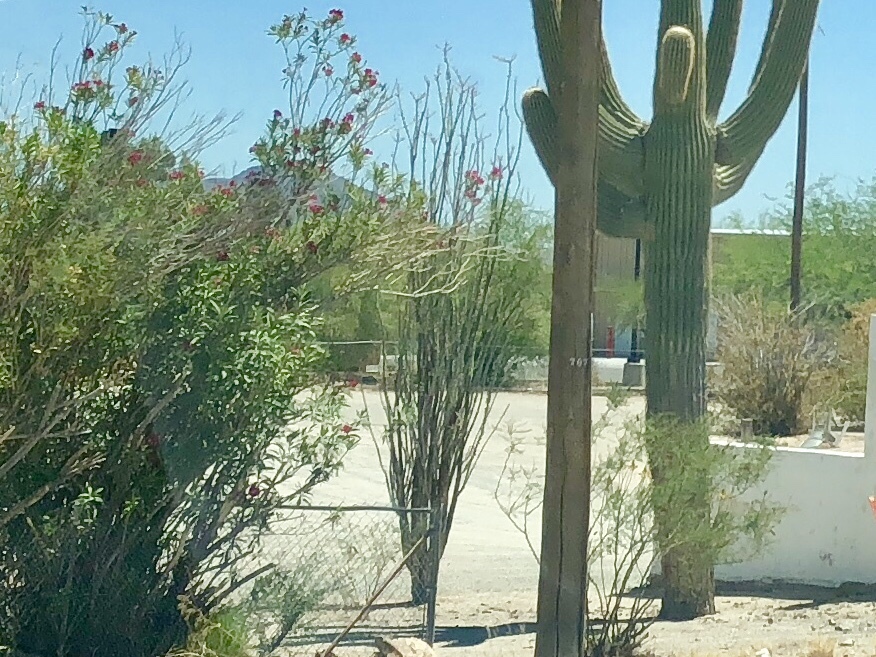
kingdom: Plantae
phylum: Tracheophyta
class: Magnoliopsida
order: Ericales
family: Fouquieriaceae
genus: Fouquieria
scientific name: Fouquieria splendens
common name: Vine-cactus
